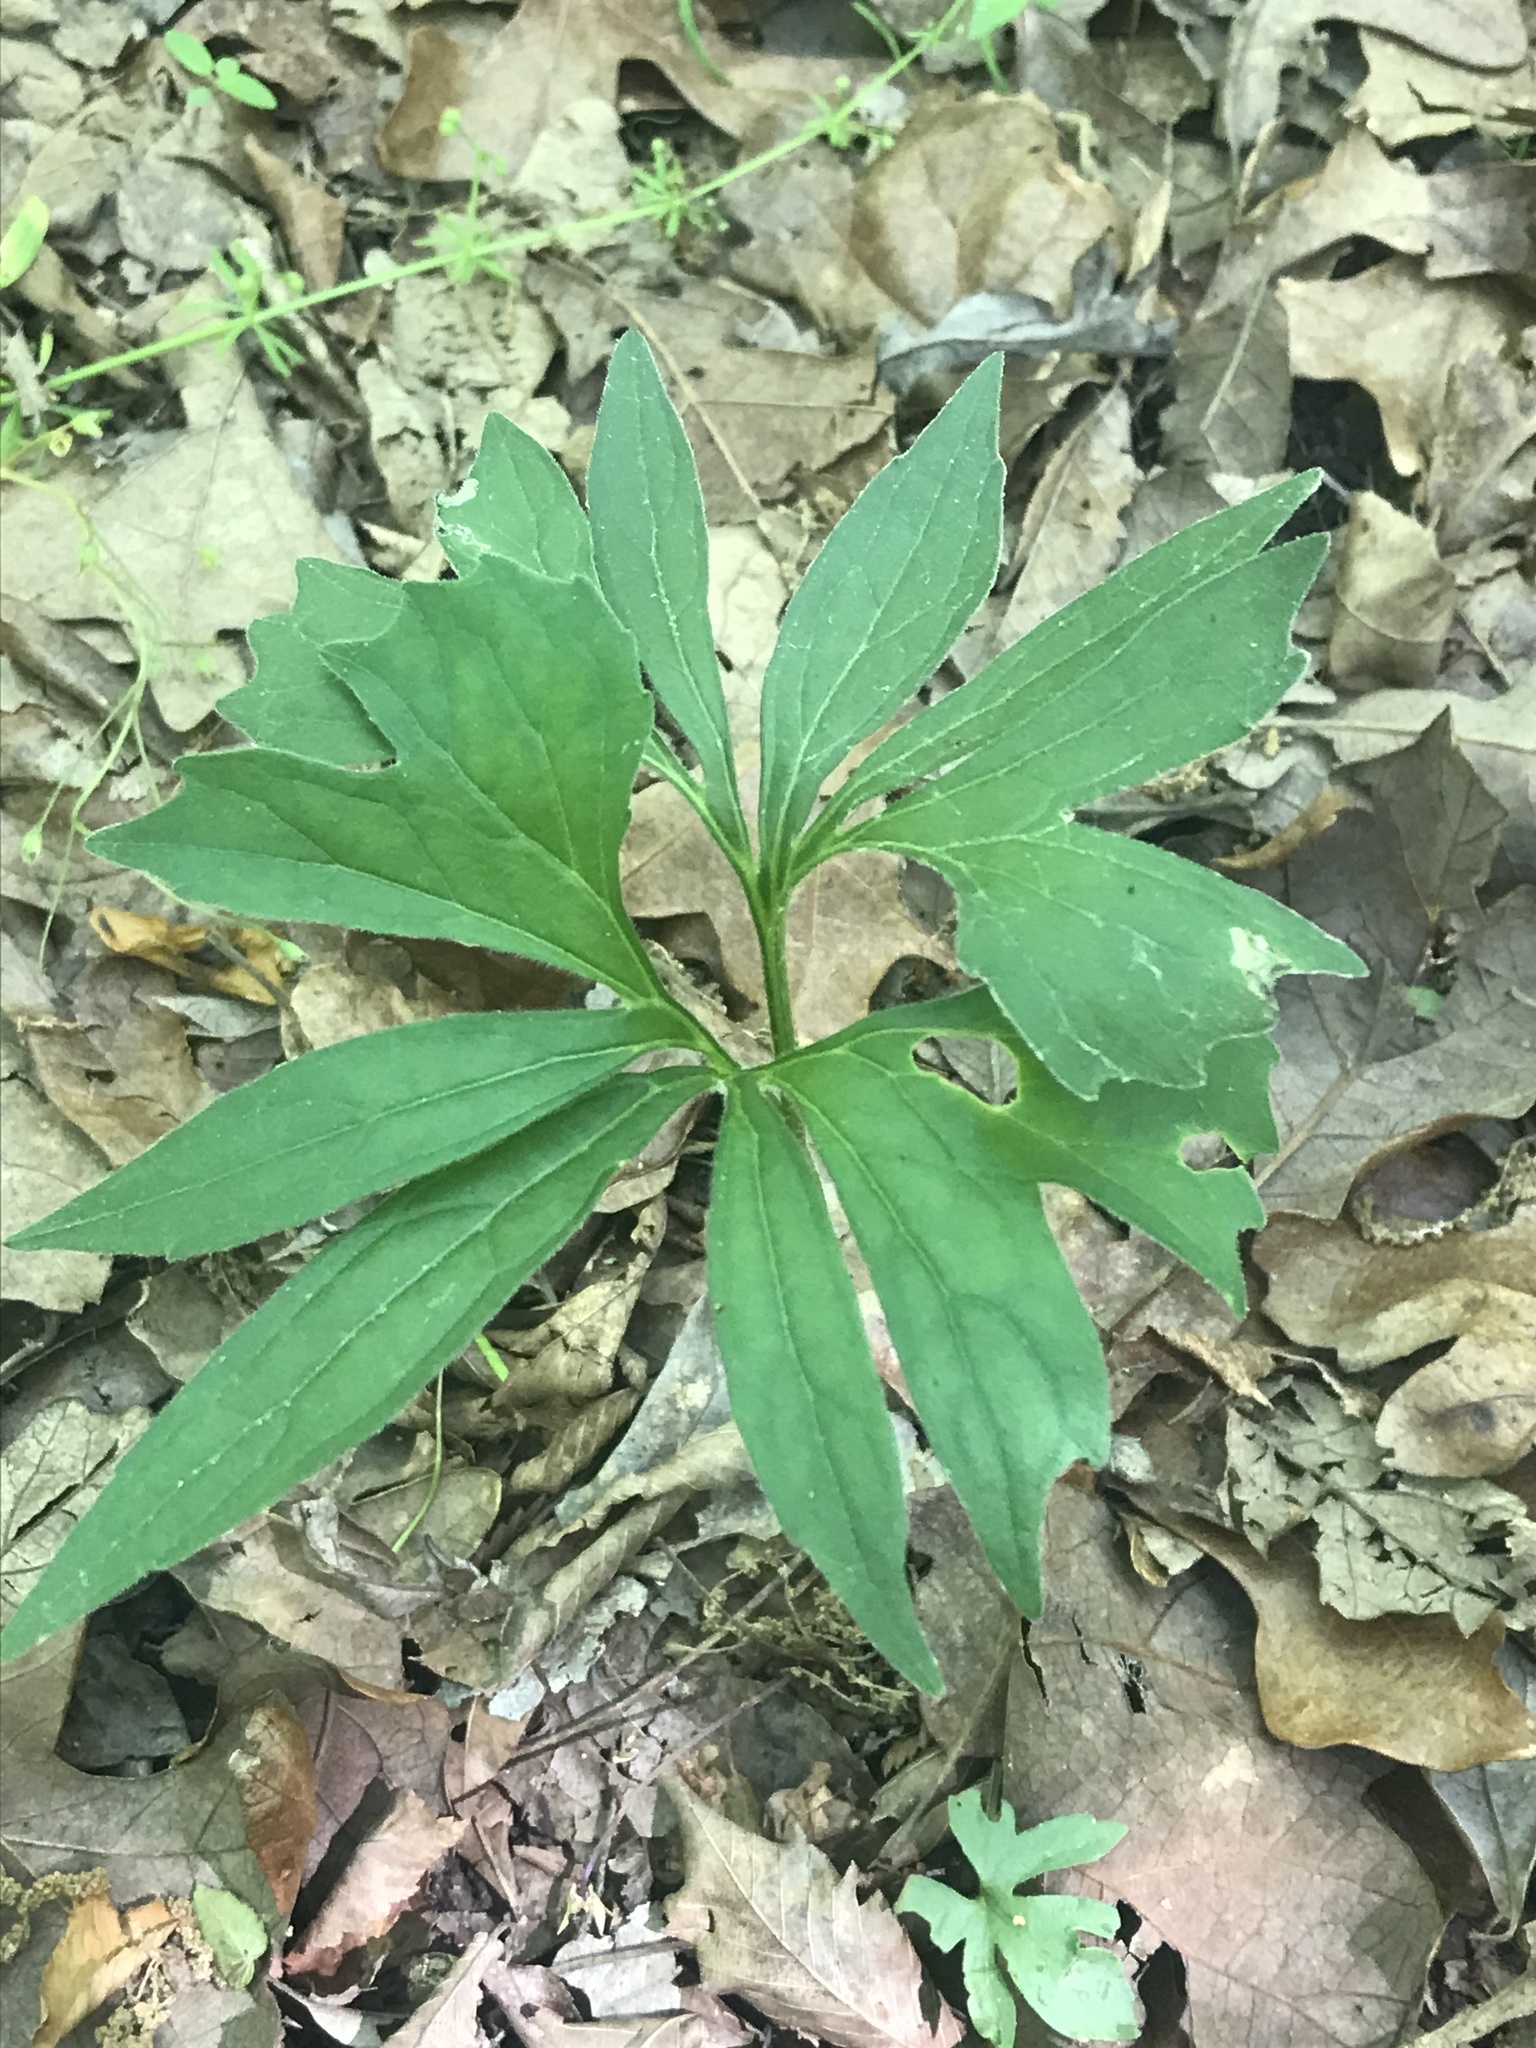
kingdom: Plantae
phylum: Tracheophyta
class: Magnoliopsida
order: Malpighiales
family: Violaceae
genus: Viola
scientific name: Viola palmata
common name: Early blue violet
